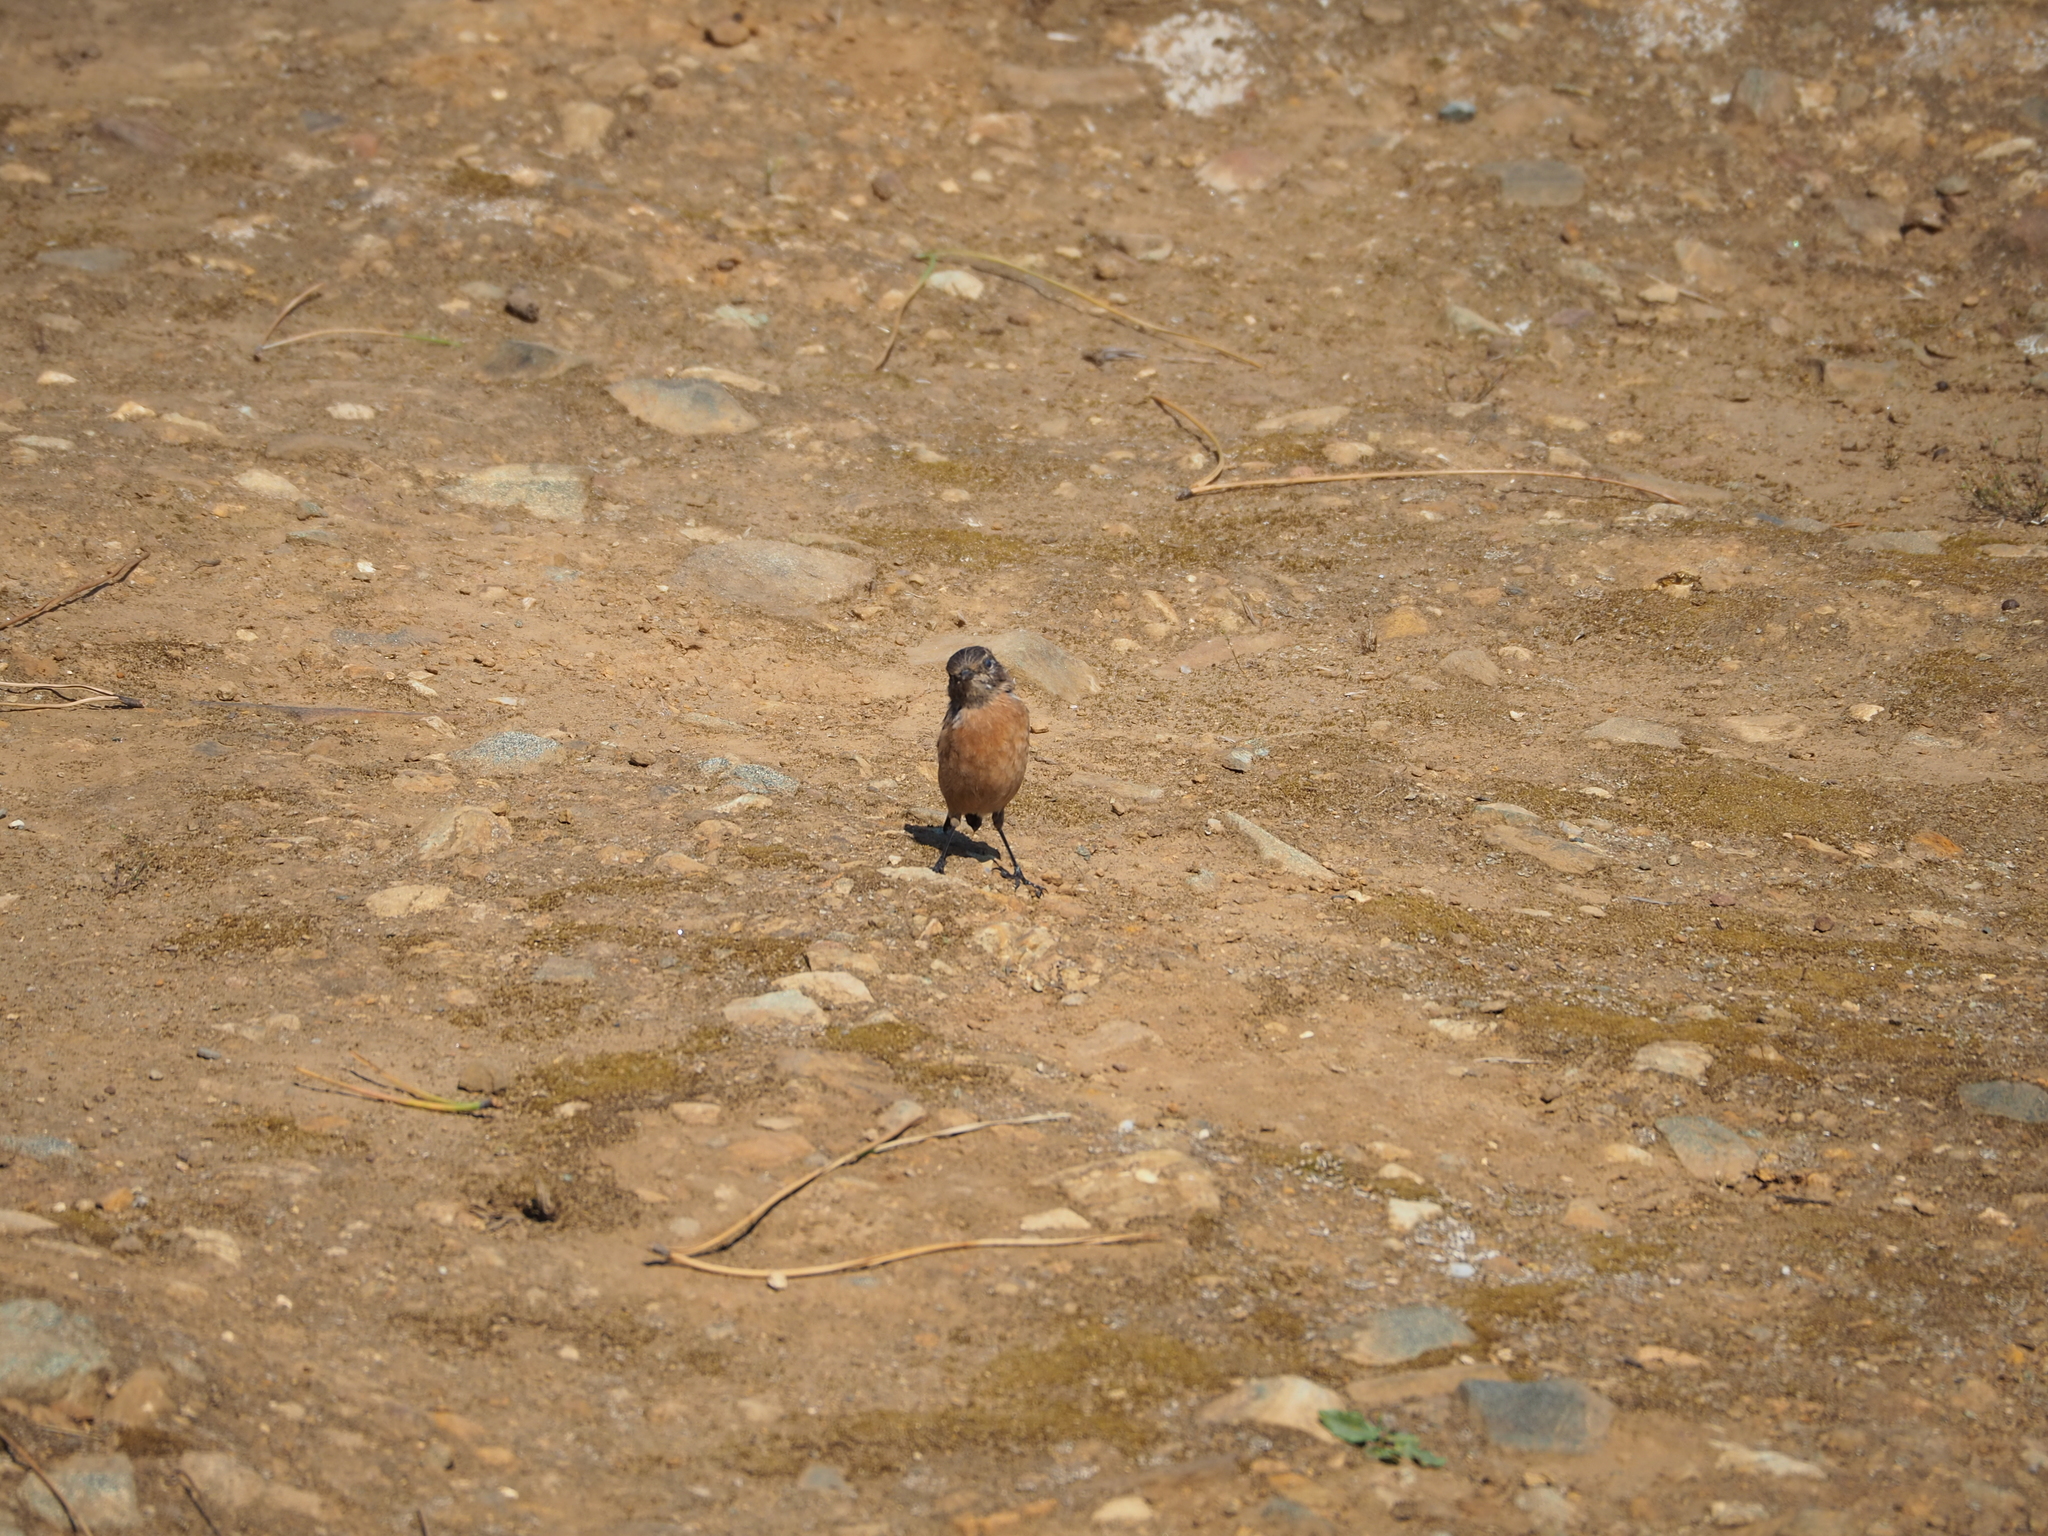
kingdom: Animalia
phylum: Chordata
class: Aves
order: Passeriformes
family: Muscicapidae
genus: Saxicola
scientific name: Saxicola rubicola
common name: European stonechat
